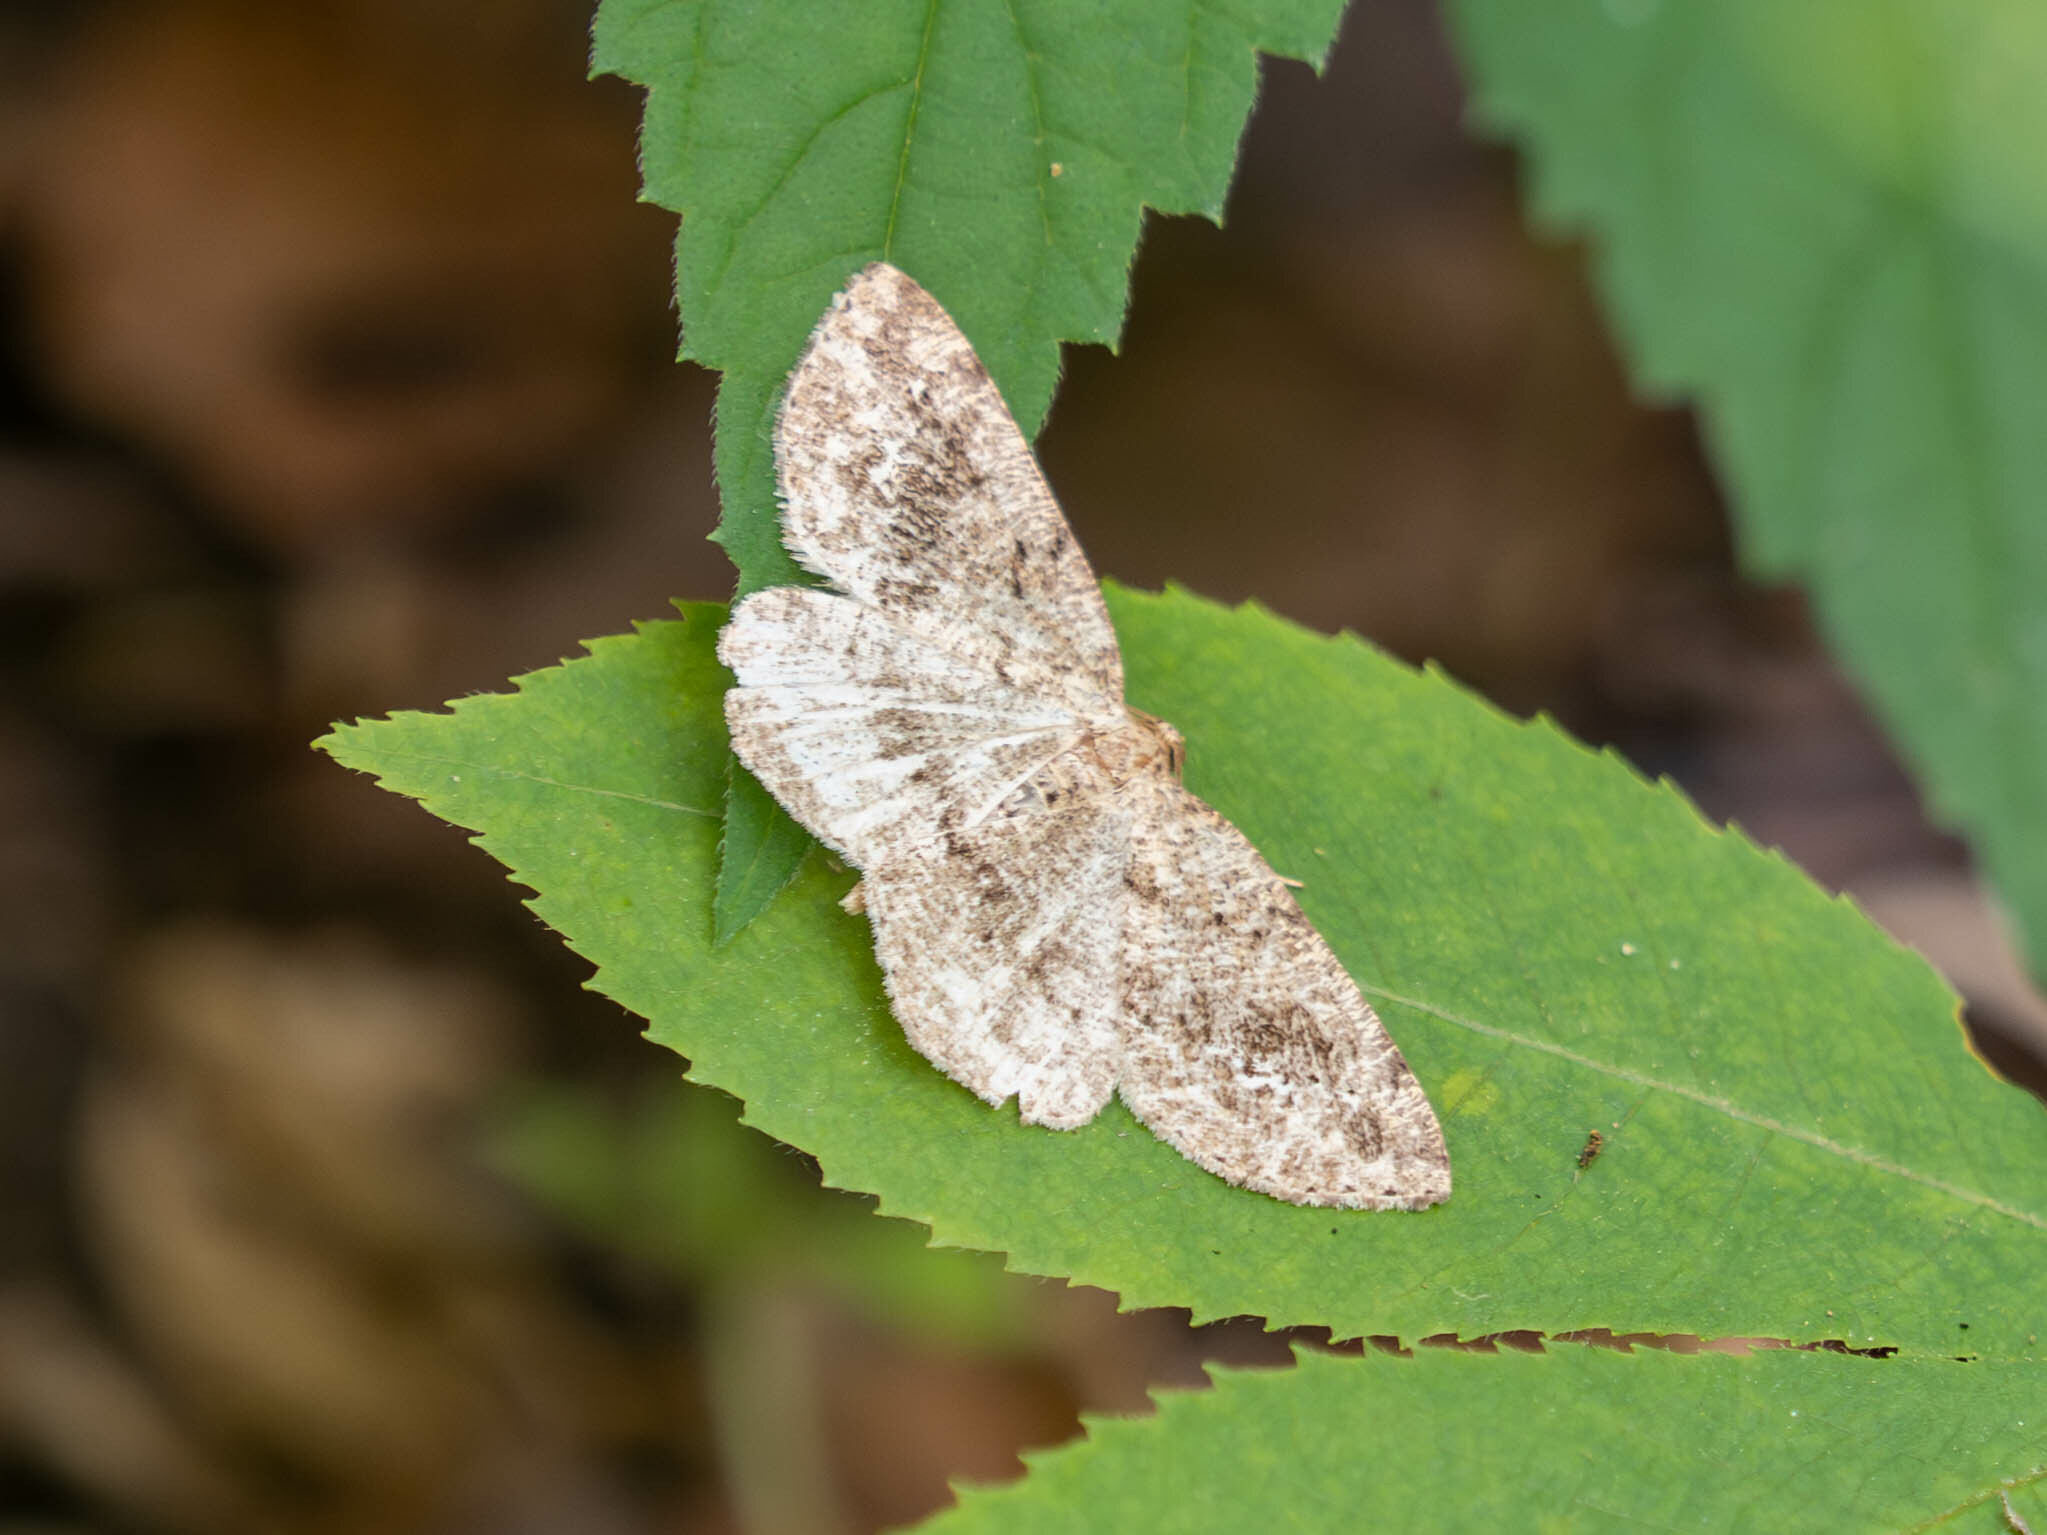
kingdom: Animalia
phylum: Arthropoda
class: Insecta
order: Lepidoptera
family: Geometridae
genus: Homochlodes
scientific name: Homochlodes fritillaria
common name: Pale homochlodes
